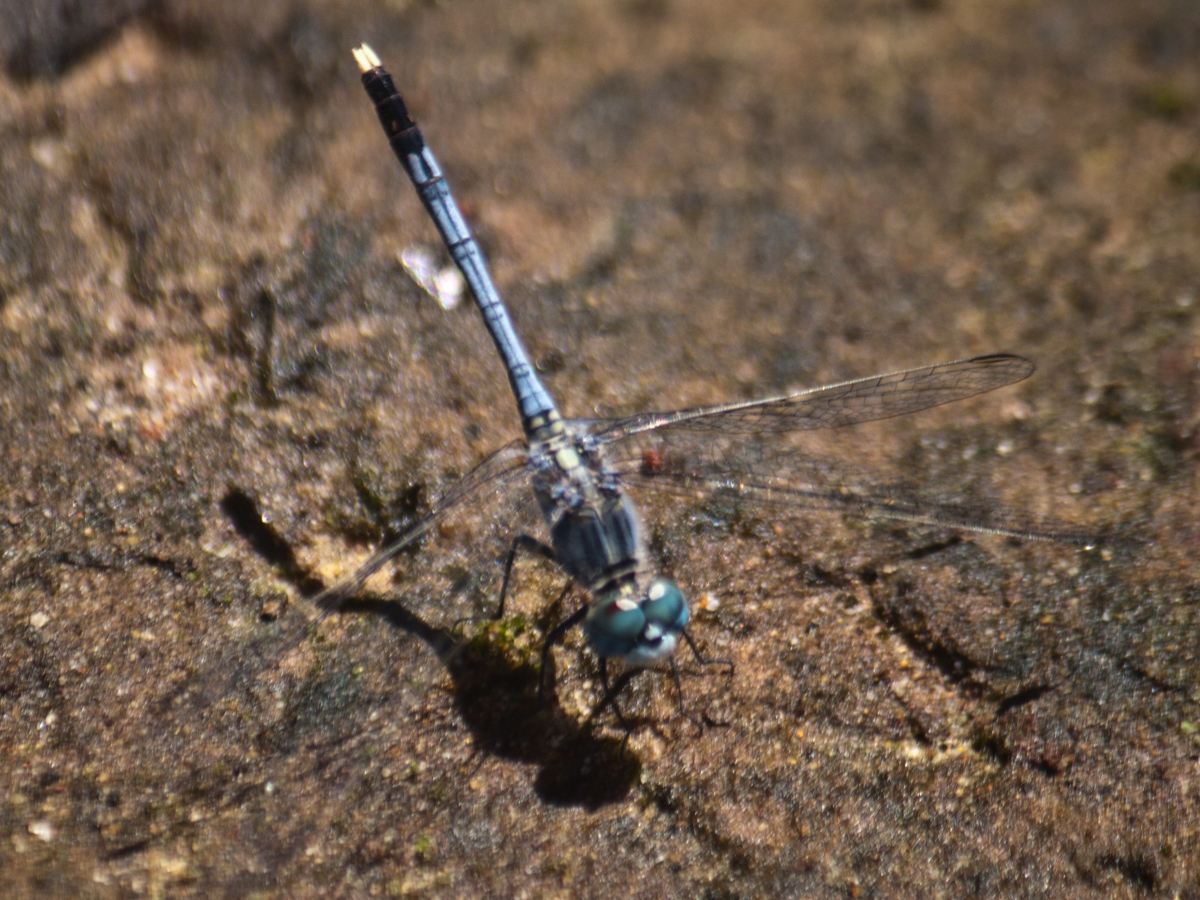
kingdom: Animalia
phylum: Arthropoda
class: Insecta
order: Odonata
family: Libellulidae
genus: Diplacodes
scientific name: Diplacodes trivialis
